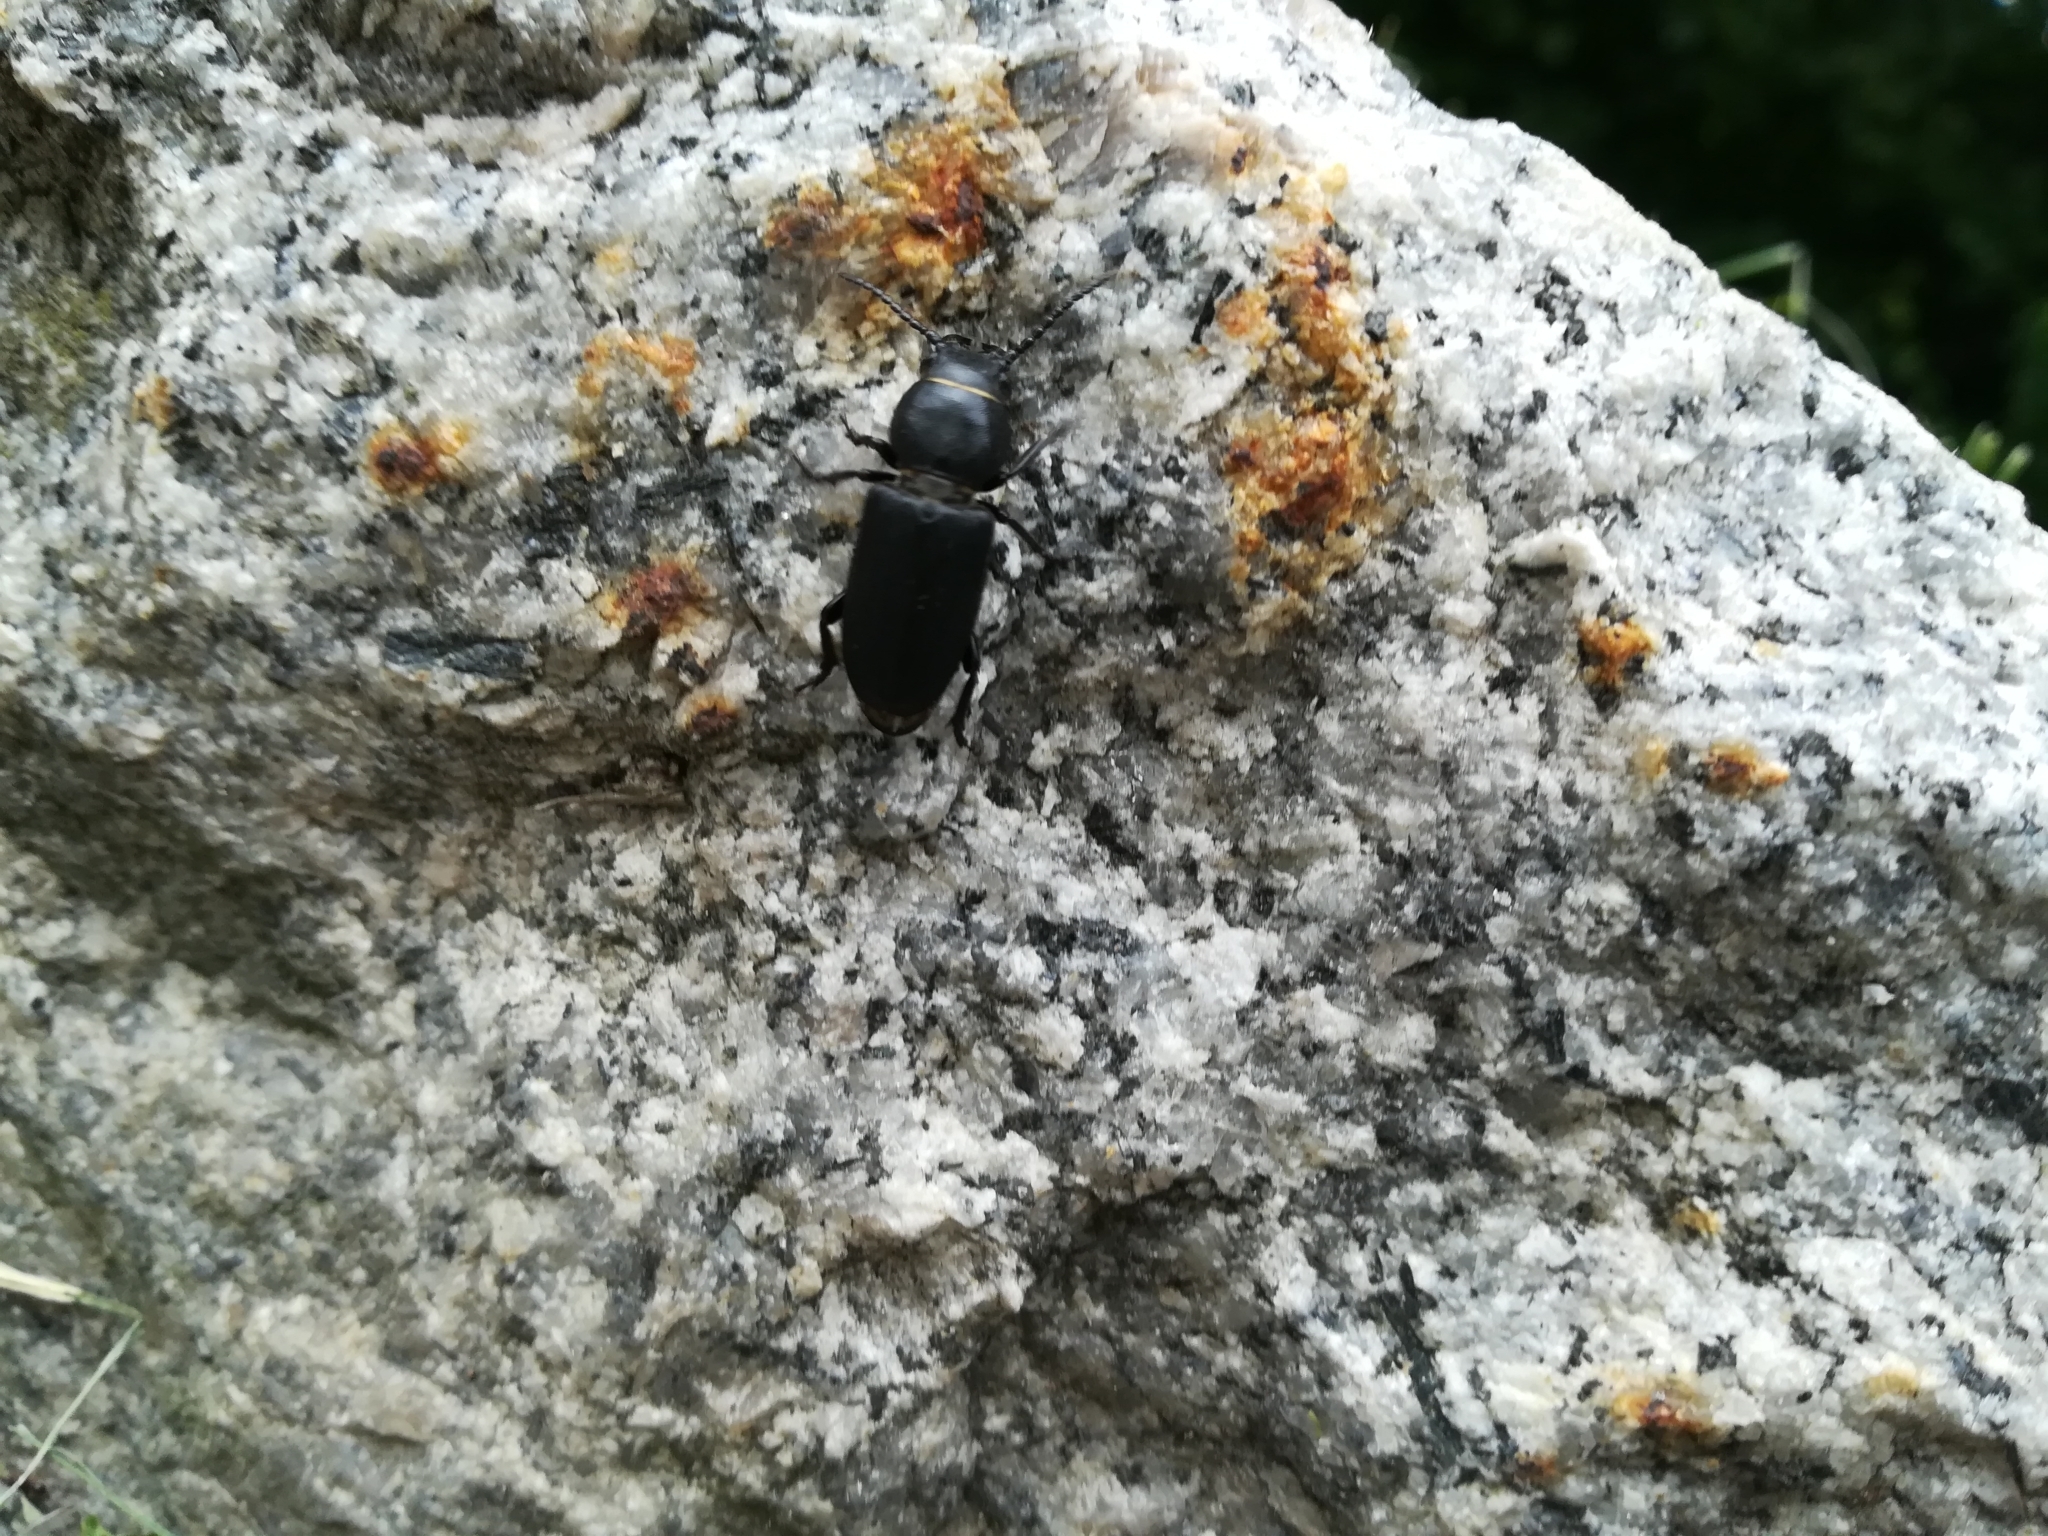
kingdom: Animalia
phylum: Arthropoda
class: Insecta
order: Coleoptera
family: Cerambycidae
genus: Spondylis
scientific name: Spondylis buprestoides
